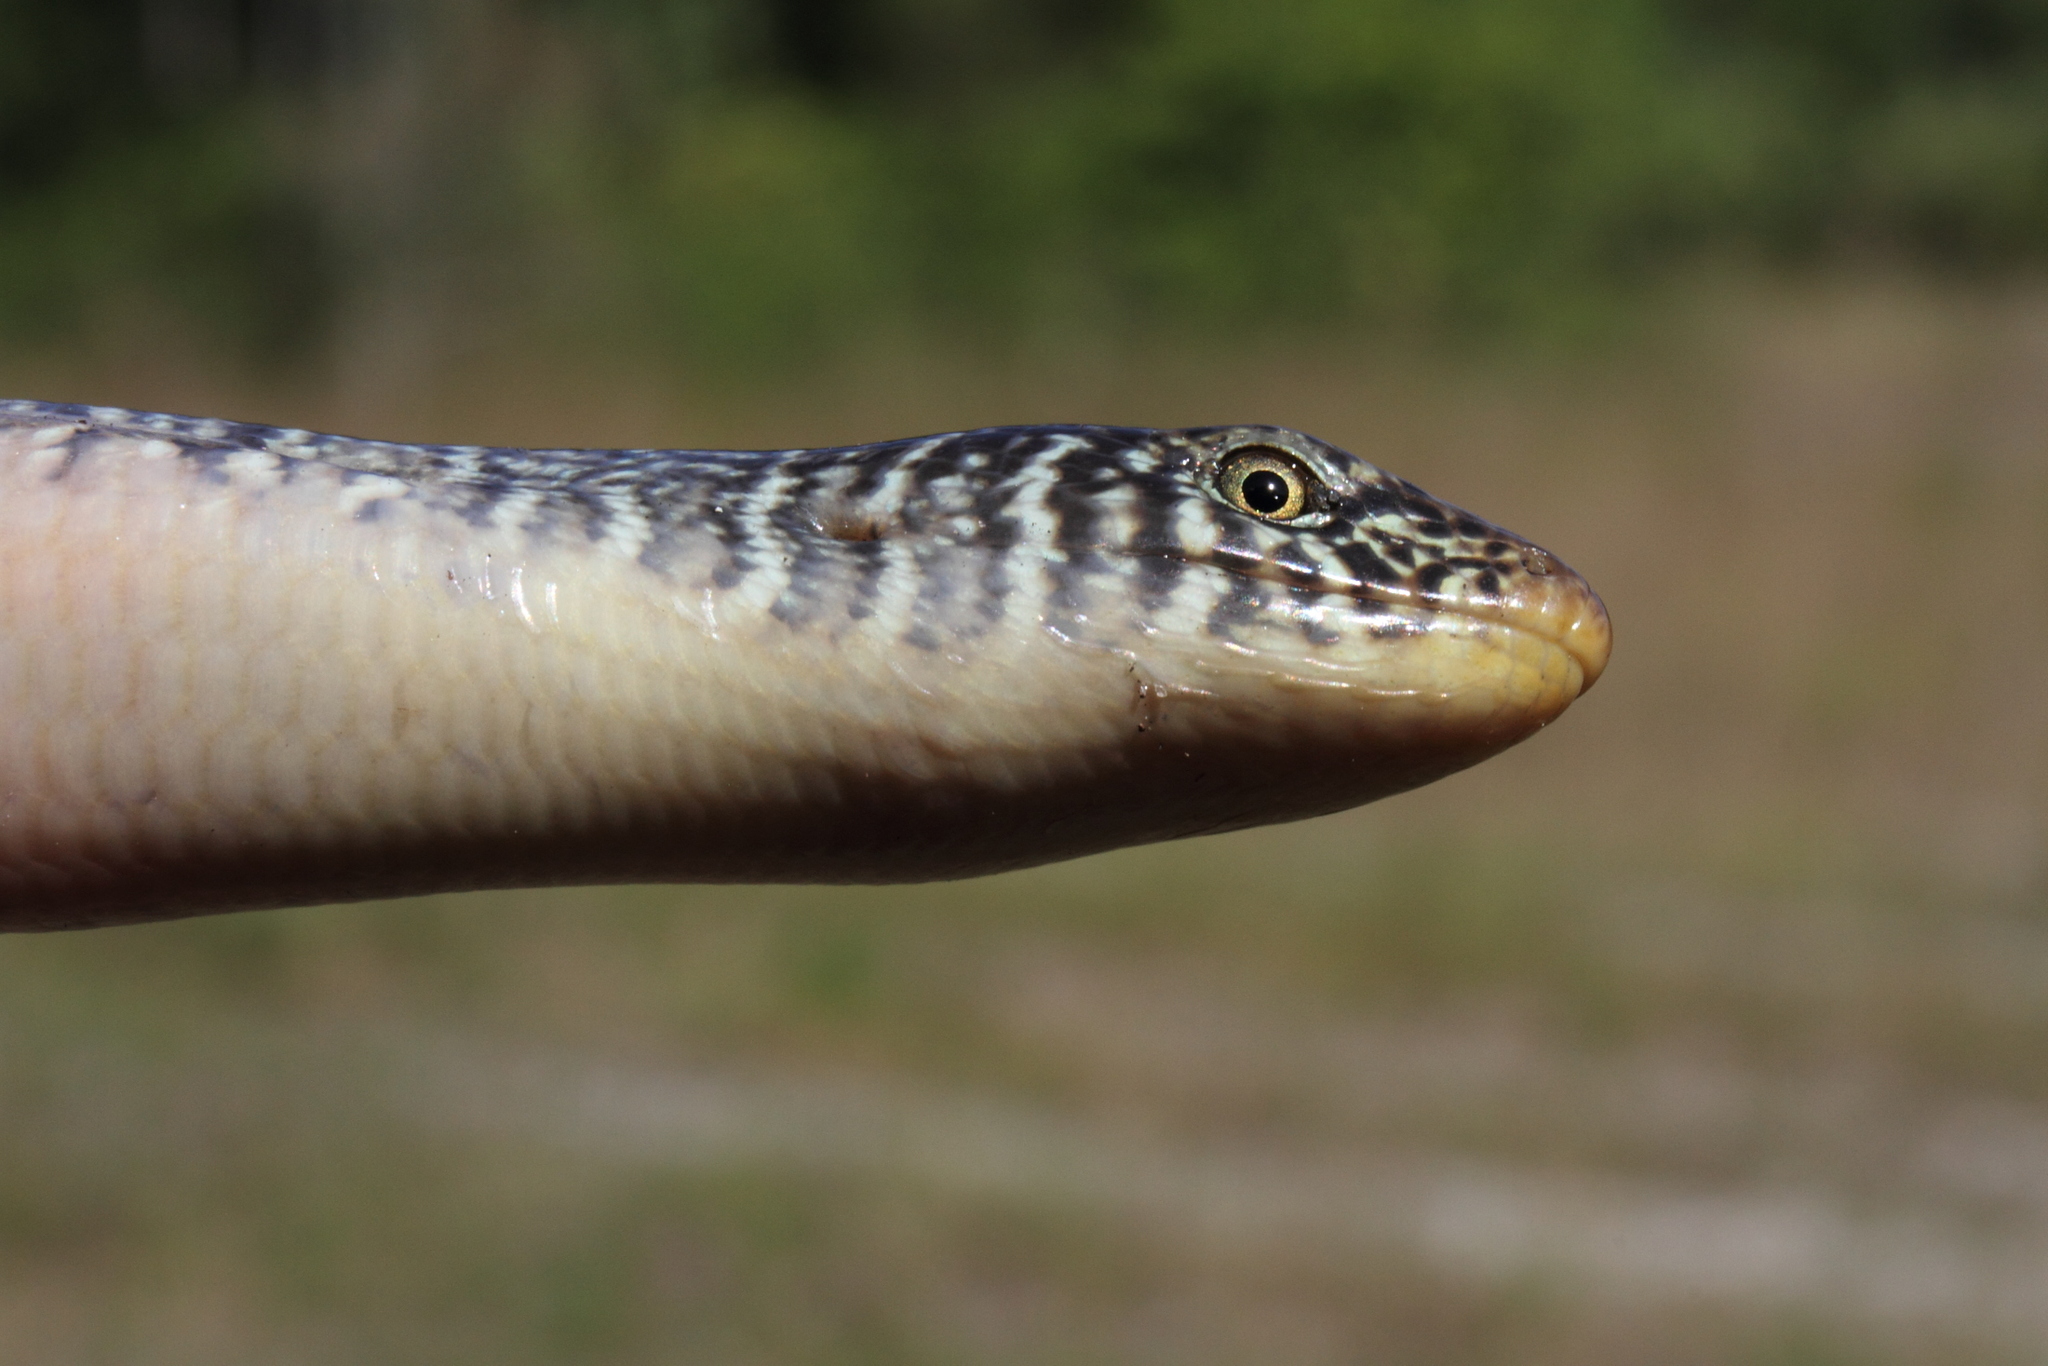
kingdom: Animalia
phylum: Chordata
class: Squamata
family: Anguidae
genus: Ophisaurus
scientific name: Ophisaurus ventralis
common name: Eastern glass lizard
